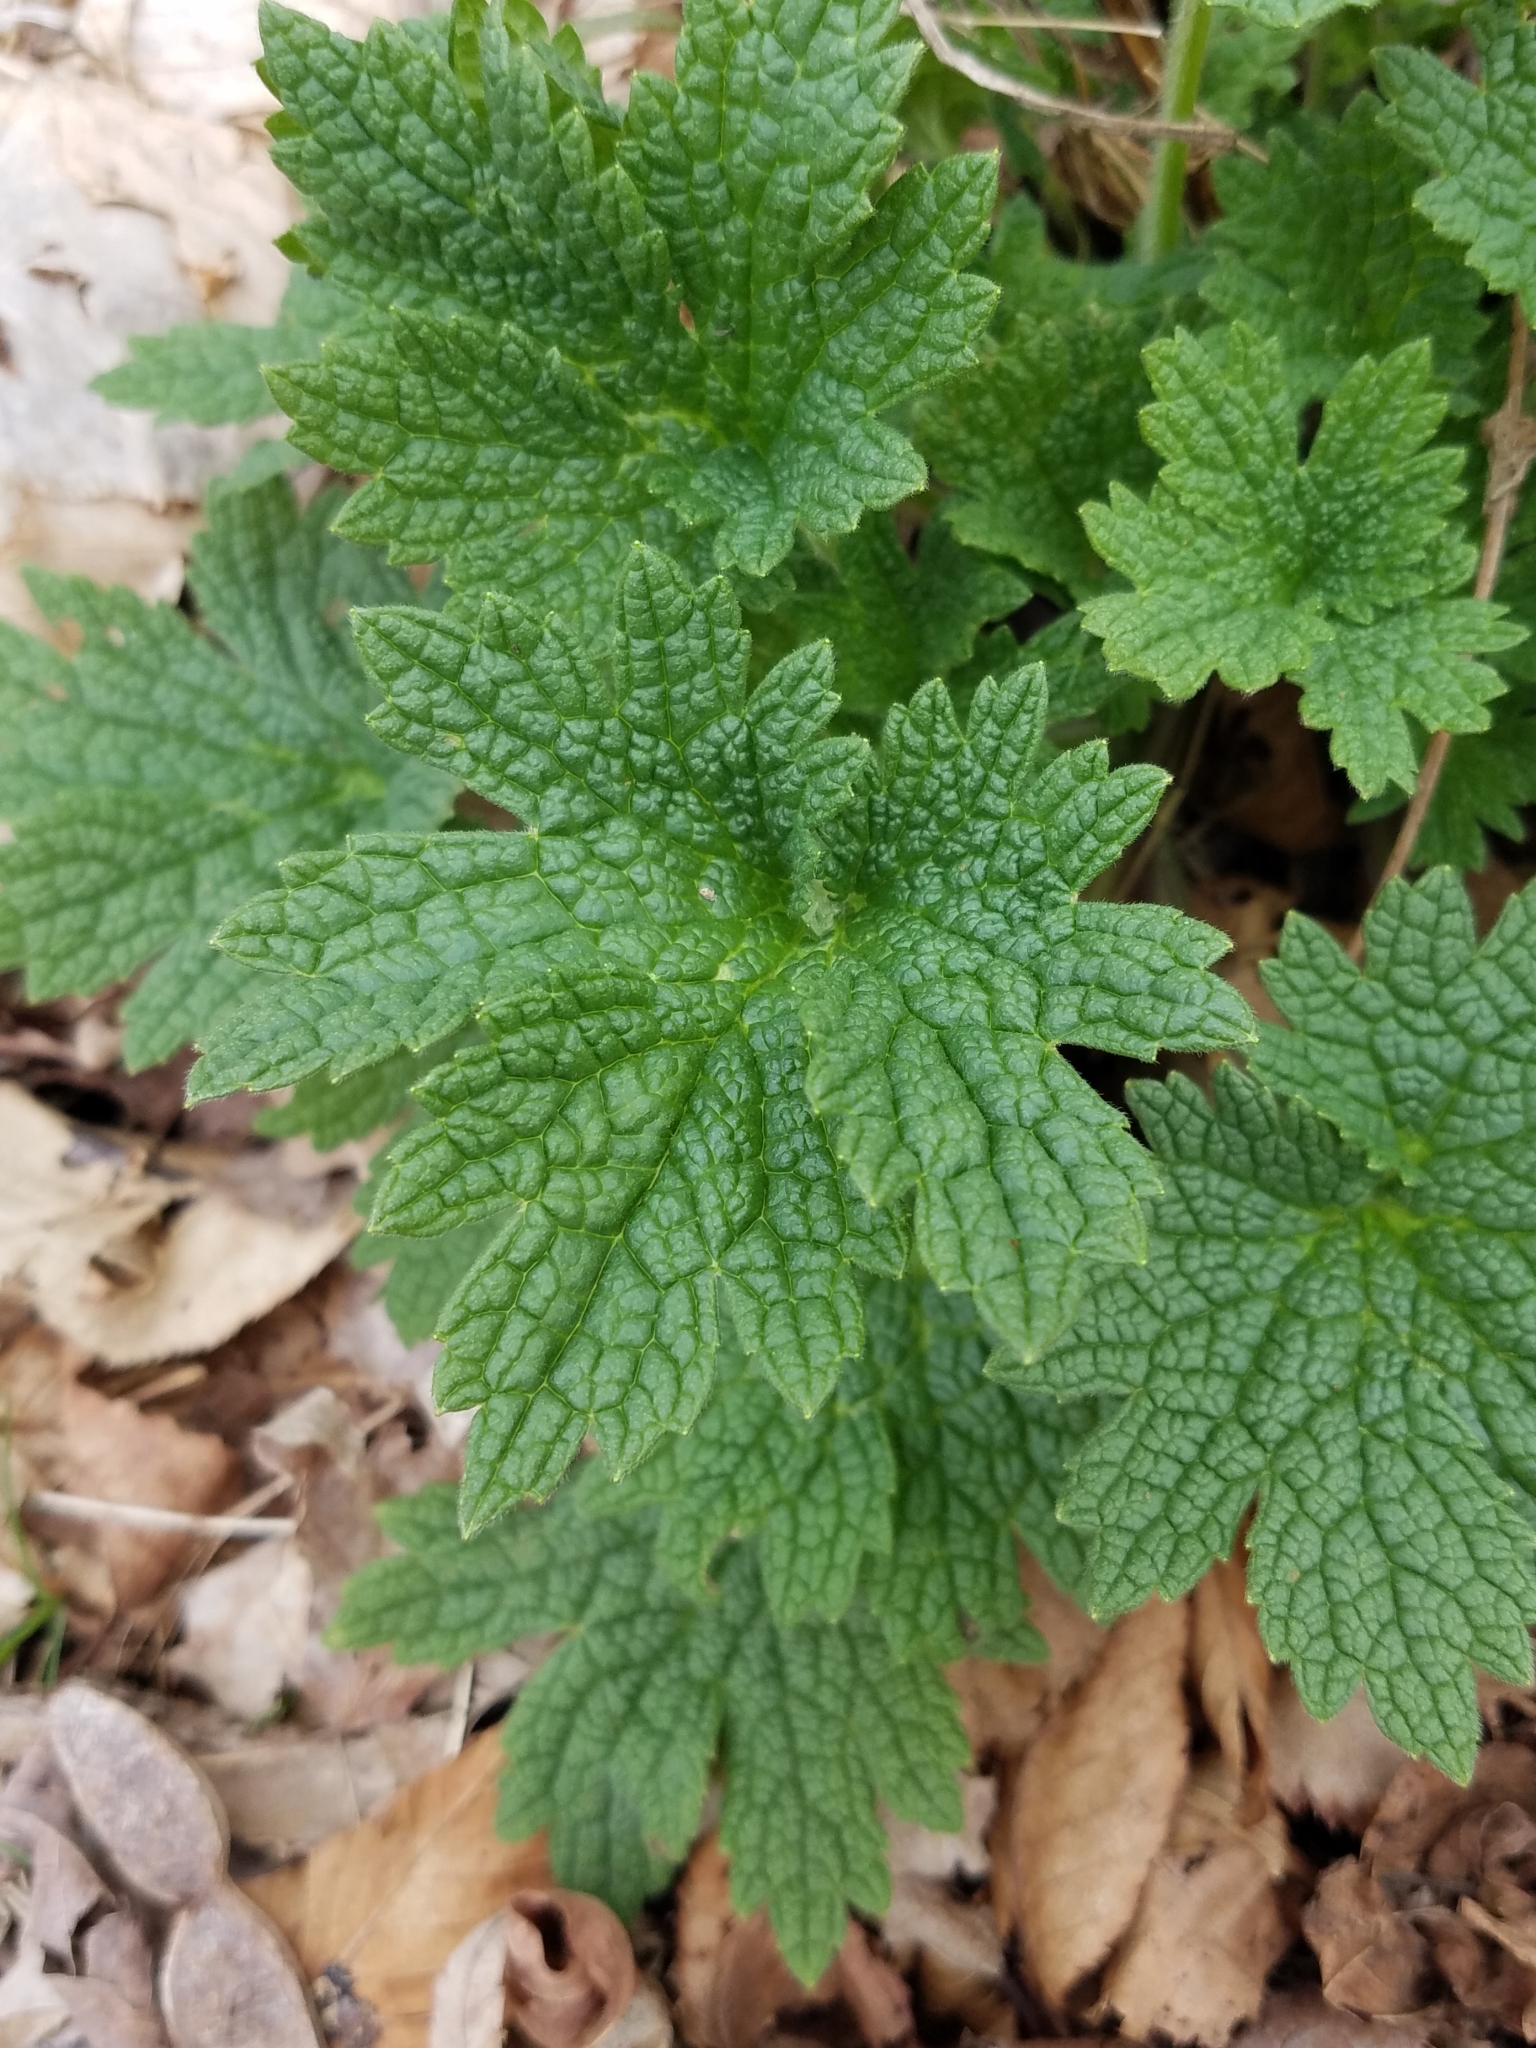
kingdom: Plantae
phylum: Tracheophyta
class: Magnoliopsida
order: Lamiales
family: Lamiaceae
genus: Leonurus
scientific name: Leonurus cardiaca
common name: Motherwort
